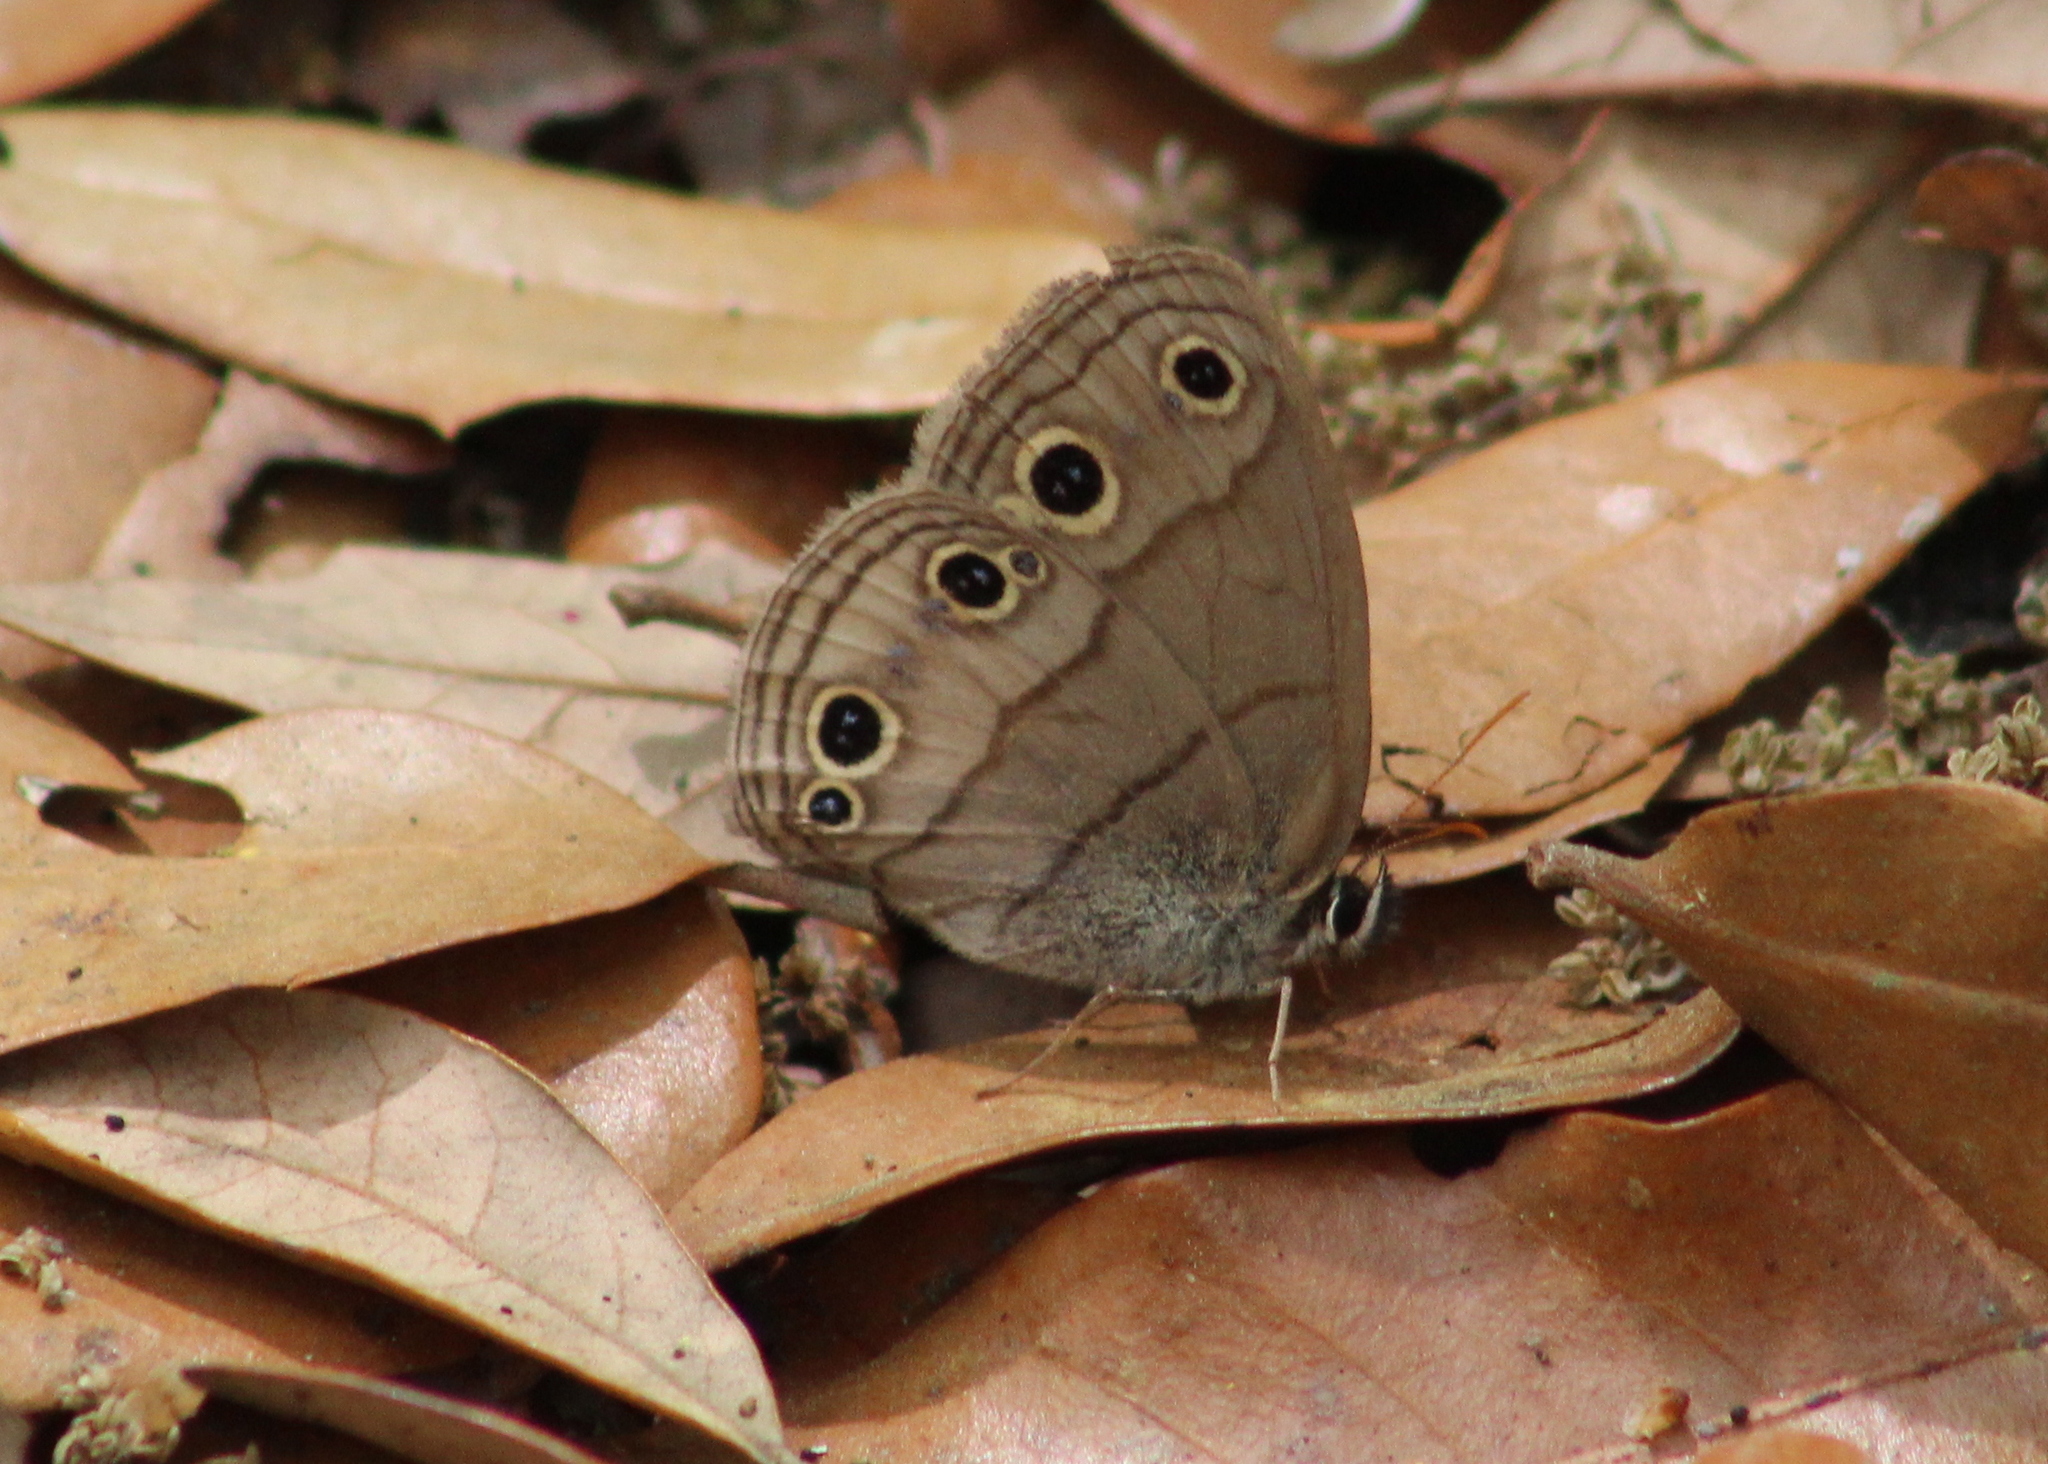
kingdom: Animalia
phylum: Arthropoda
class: Insecta
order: Lepidoptera
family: Nymphalidae
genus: Euptychia
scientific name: Euptychia cymela
